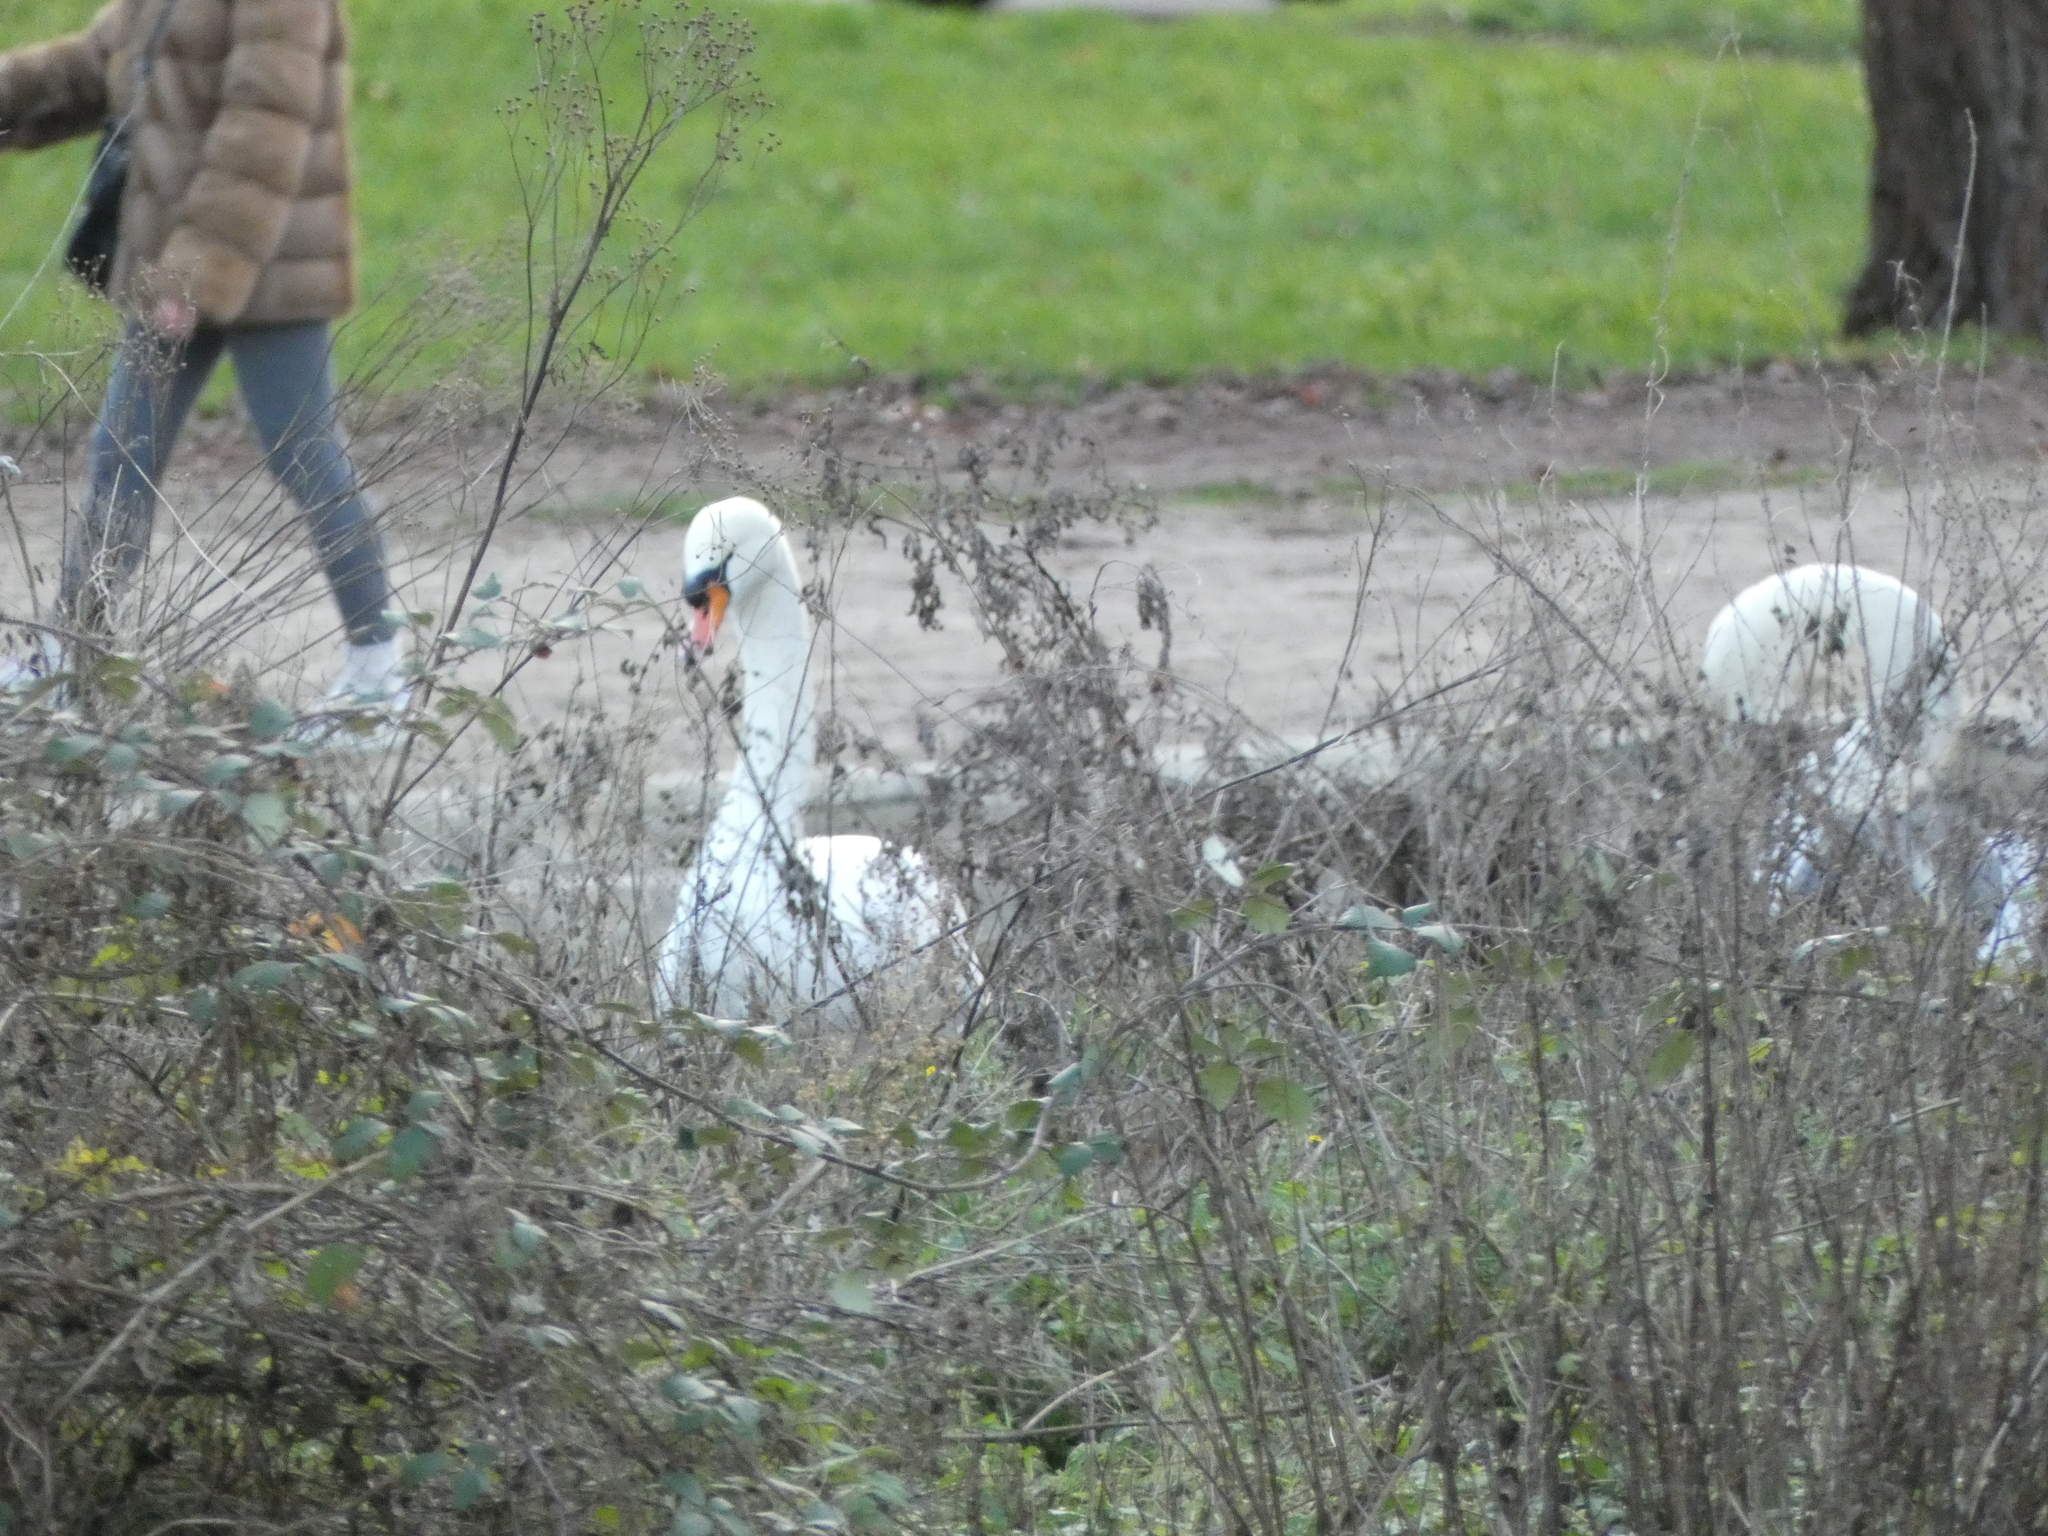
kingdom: Animalia
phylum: Chordata
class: Aves
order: Anseriformes
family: Anatidae
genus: Cygnus
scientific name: Cygnus olor
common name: Mute swan
